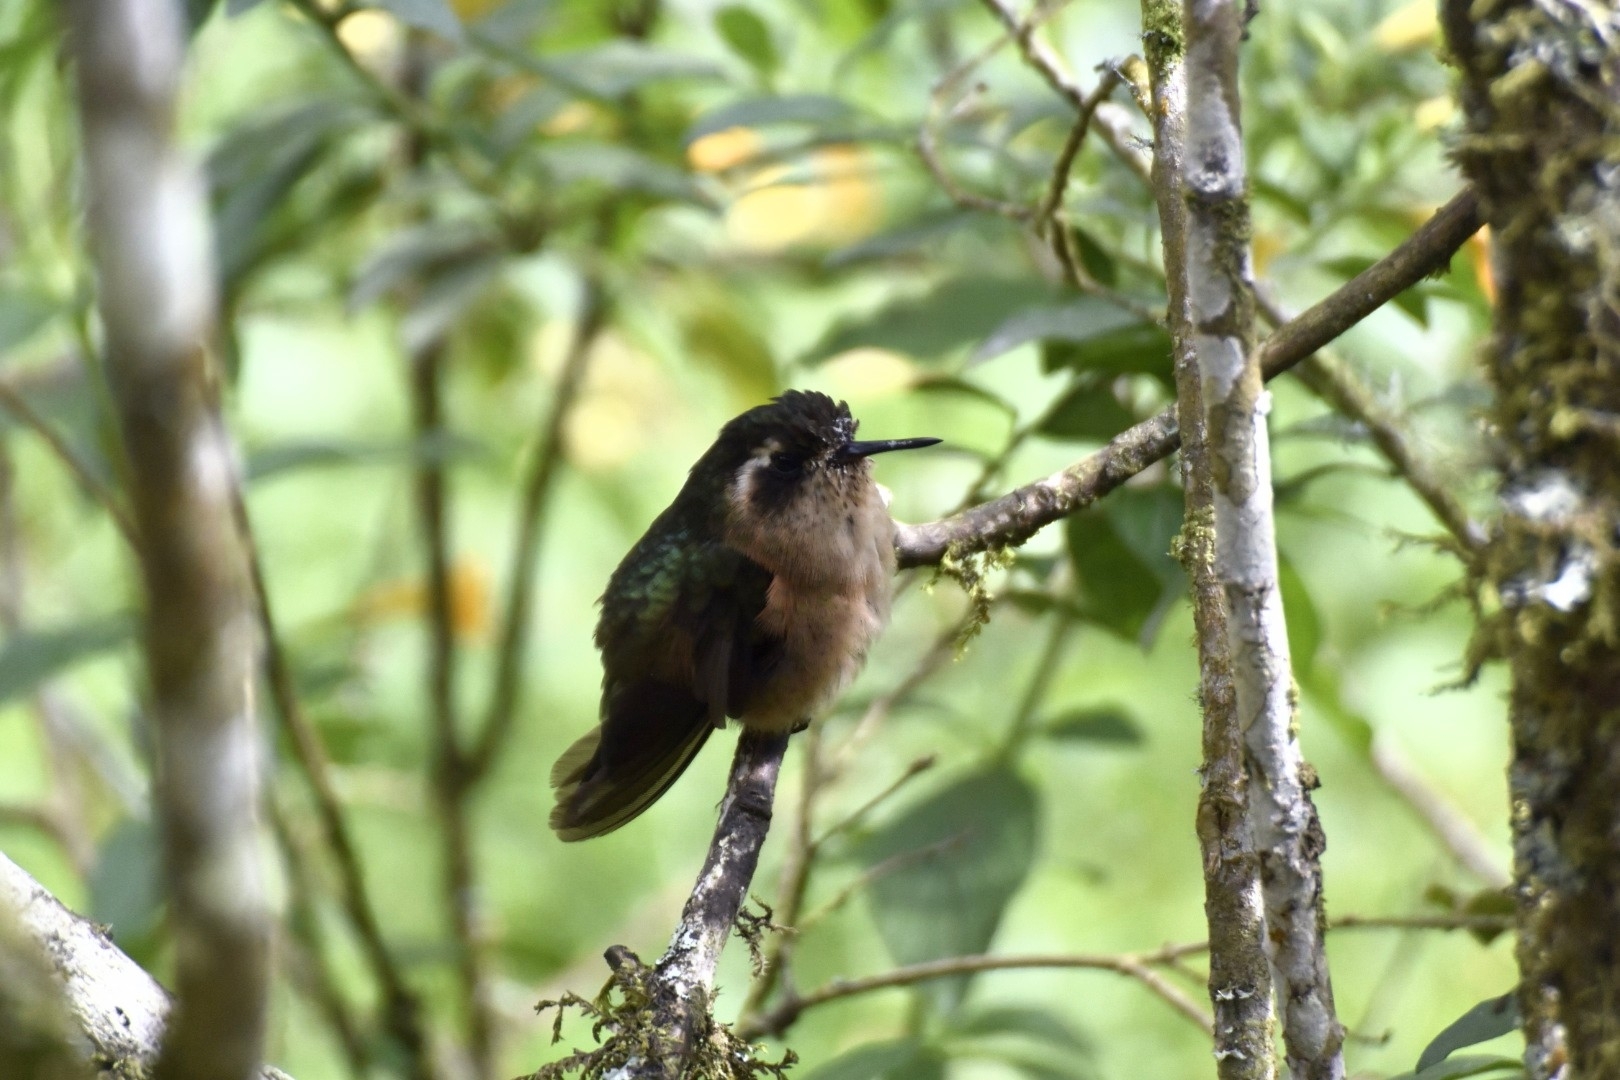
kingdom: Animalia
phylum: Chordata
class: Aves
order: Apodiformes
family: Trochilidae
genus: Adelomyia
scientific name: Adelomyia melanogenys
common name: Speckled hummingbird
